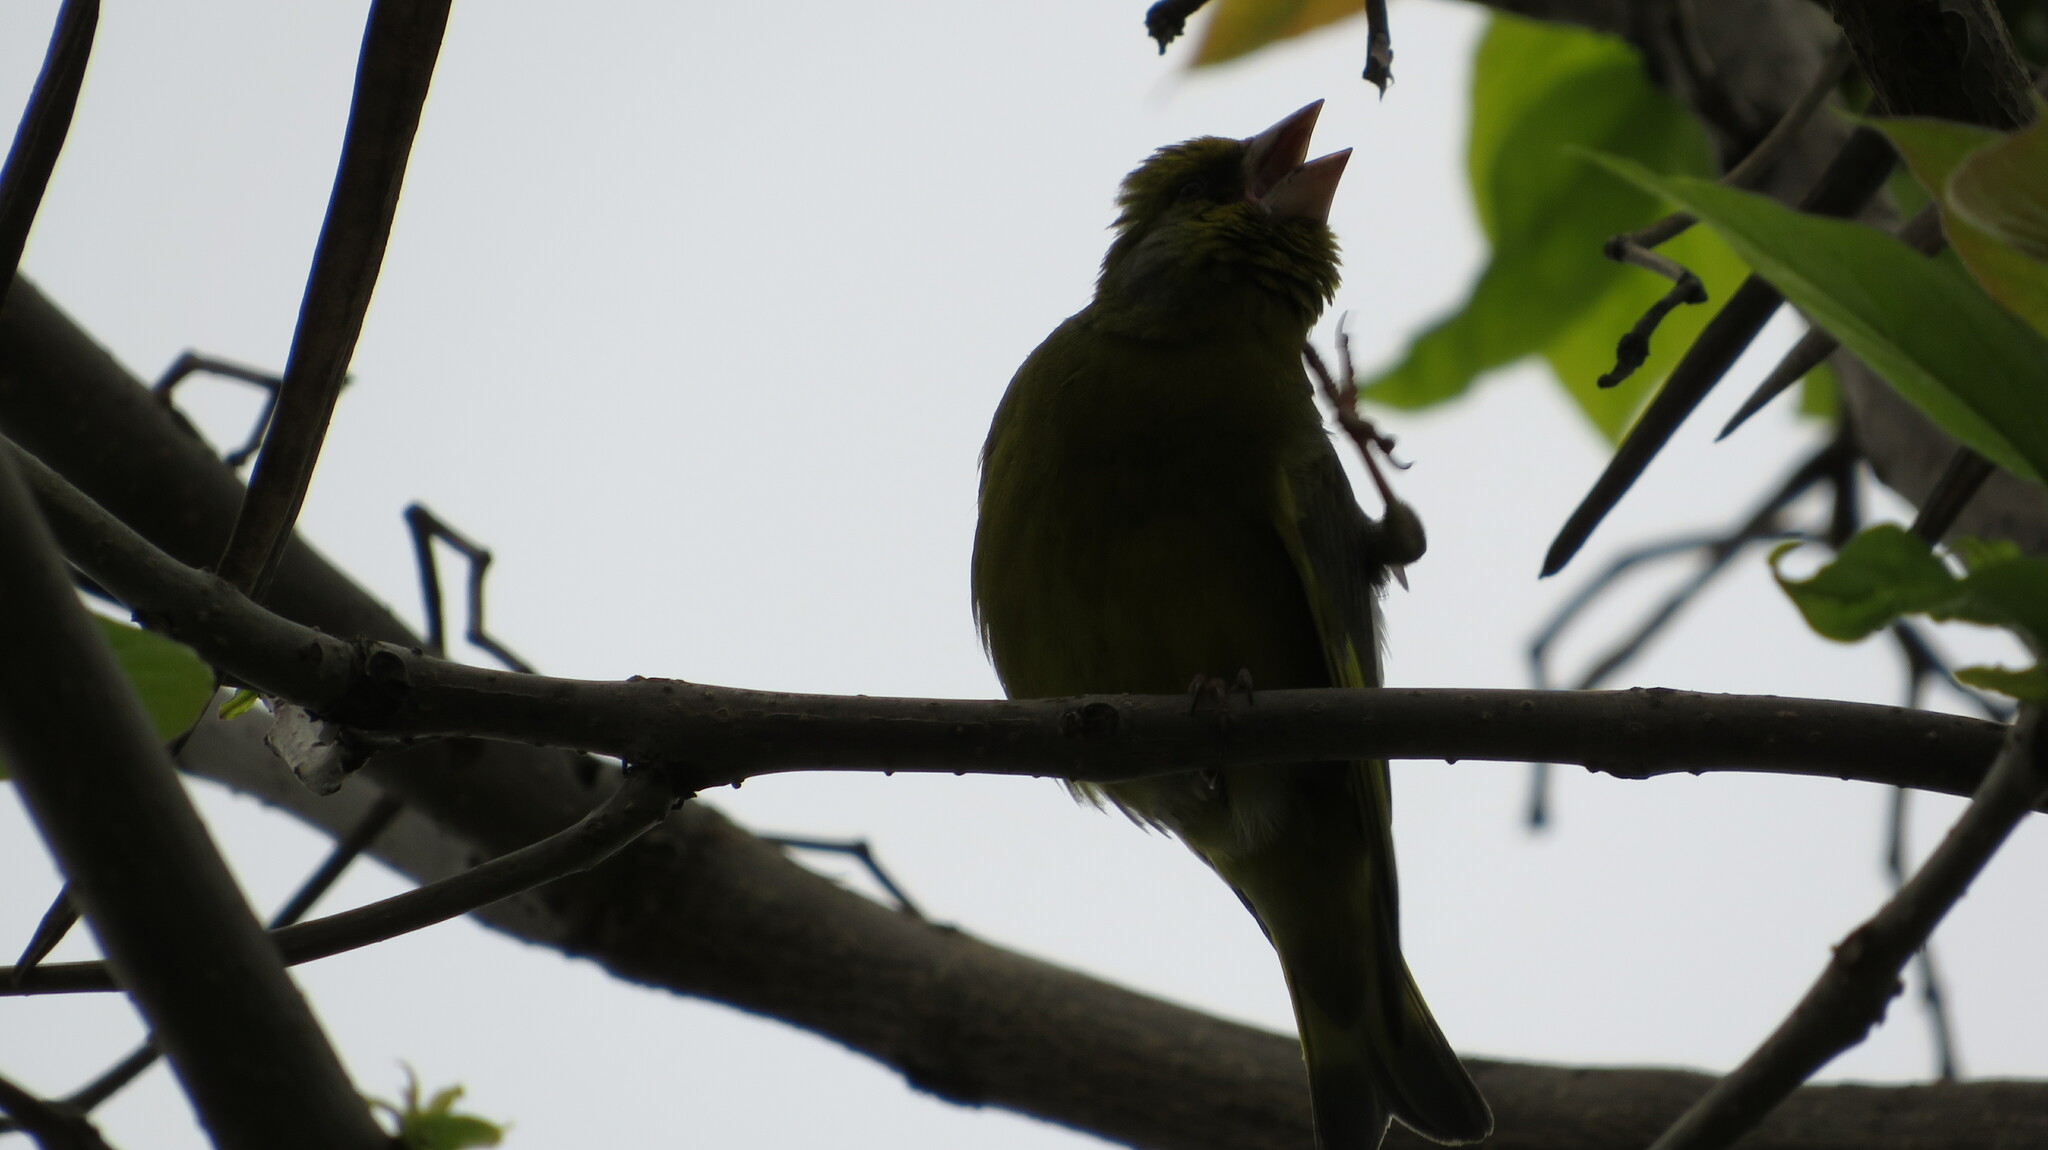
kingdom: Plantae
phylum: Tracheophyta
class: Liliopsida
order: Poales
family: Poaceae
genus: Chloris
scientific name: Chloris chloris
